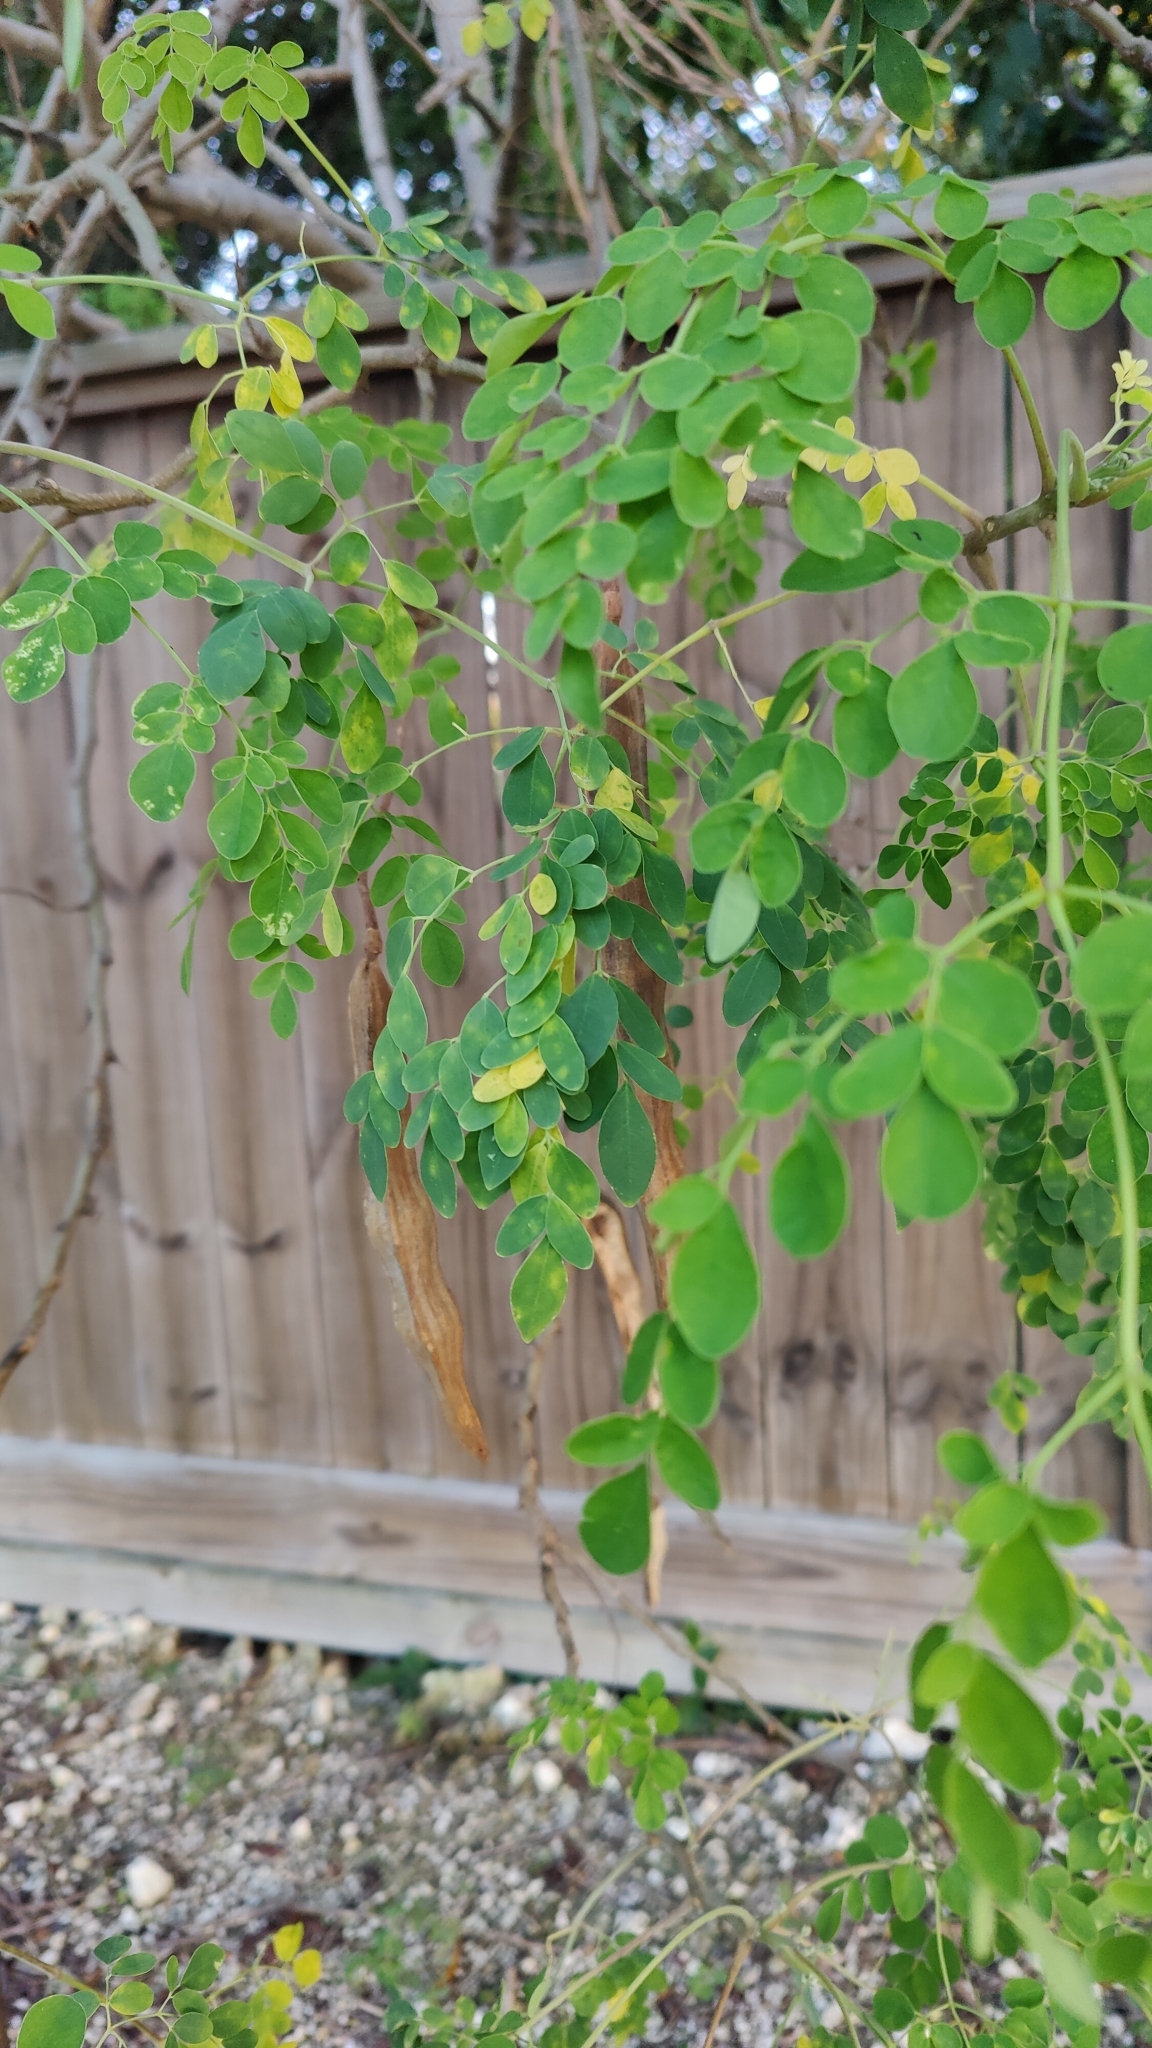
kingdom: Plantae
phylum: Tracheophyta
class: Magnoliopsida
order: Brassicales
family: Moringaceae
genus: Moringa
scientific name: Moringa oleifera
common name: Horseradish-tree
